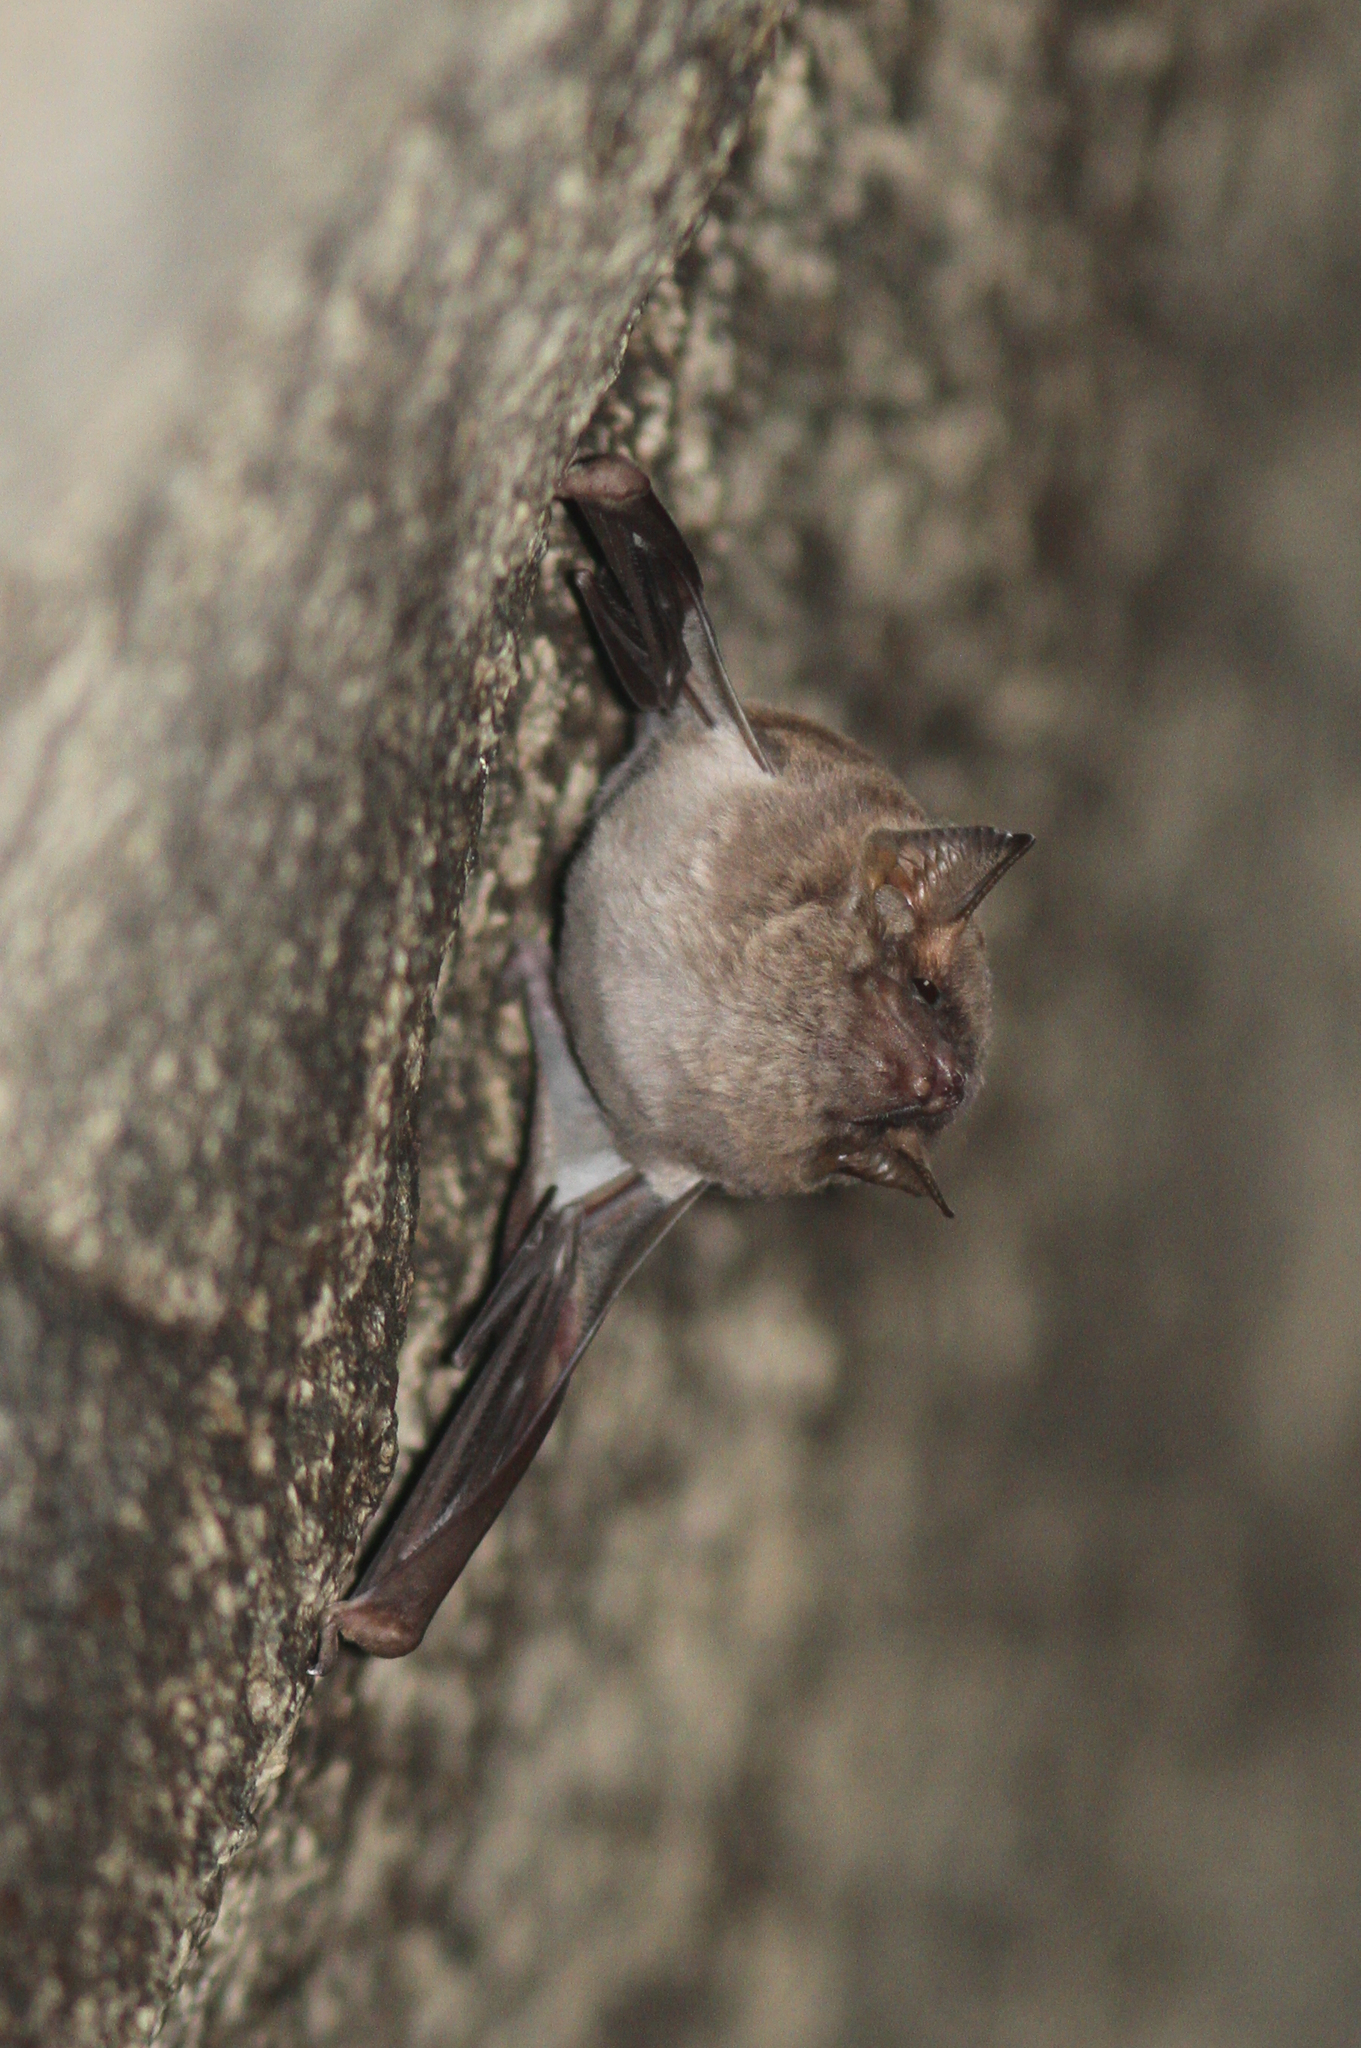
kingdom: Animalia
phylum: Chordata
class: Mammalia
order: Chiroptera
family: Emballonuridae
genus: Taphozous
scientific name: Taphozous australis
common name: Coastal tomb bat
